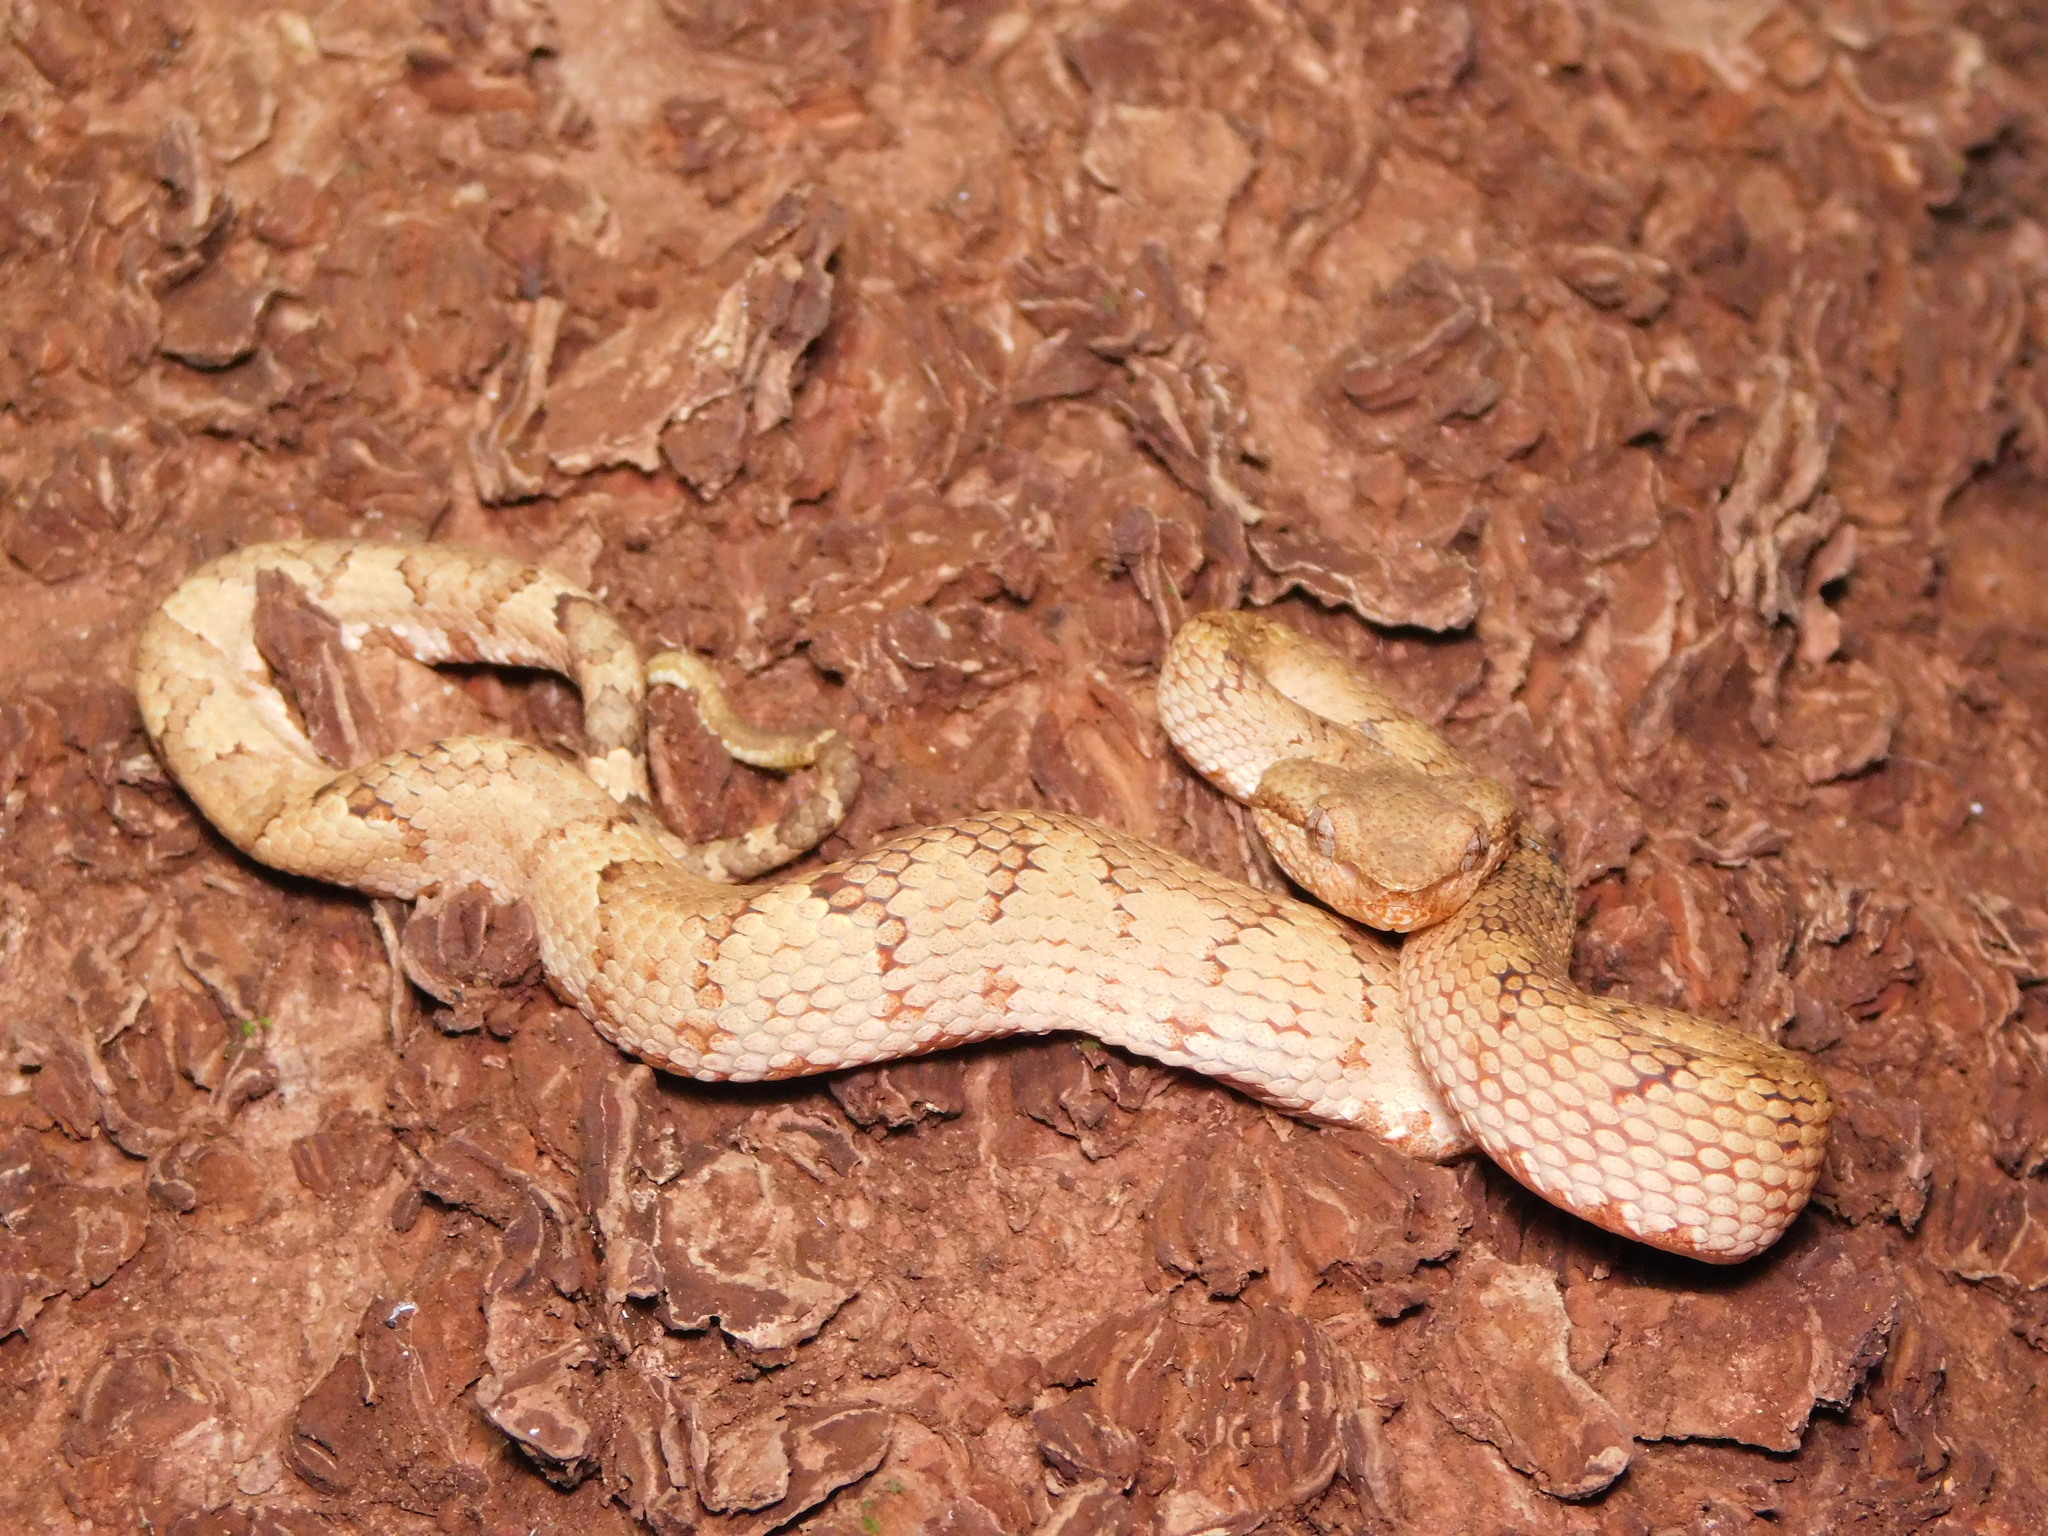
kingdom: Animalia
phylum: Chordata
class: Squamata
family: Viperidae
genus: Craspedocephalus
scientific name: Craspedocephalus malabaricus
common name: Malabarian pit viper
